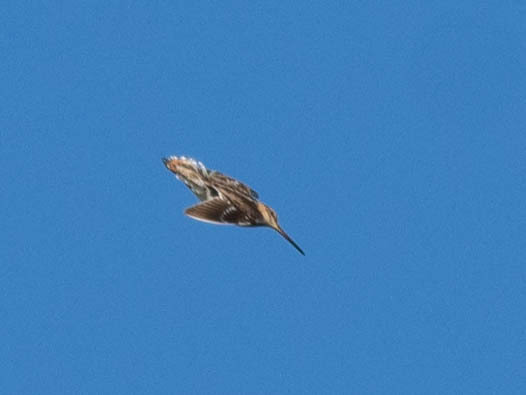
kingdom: Animalia
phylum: Chordata
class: Aves
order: Charadriiformes
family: Scolopacidae
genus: Gallinago
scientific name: Gallinago delicata
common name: Wilson's snipe
